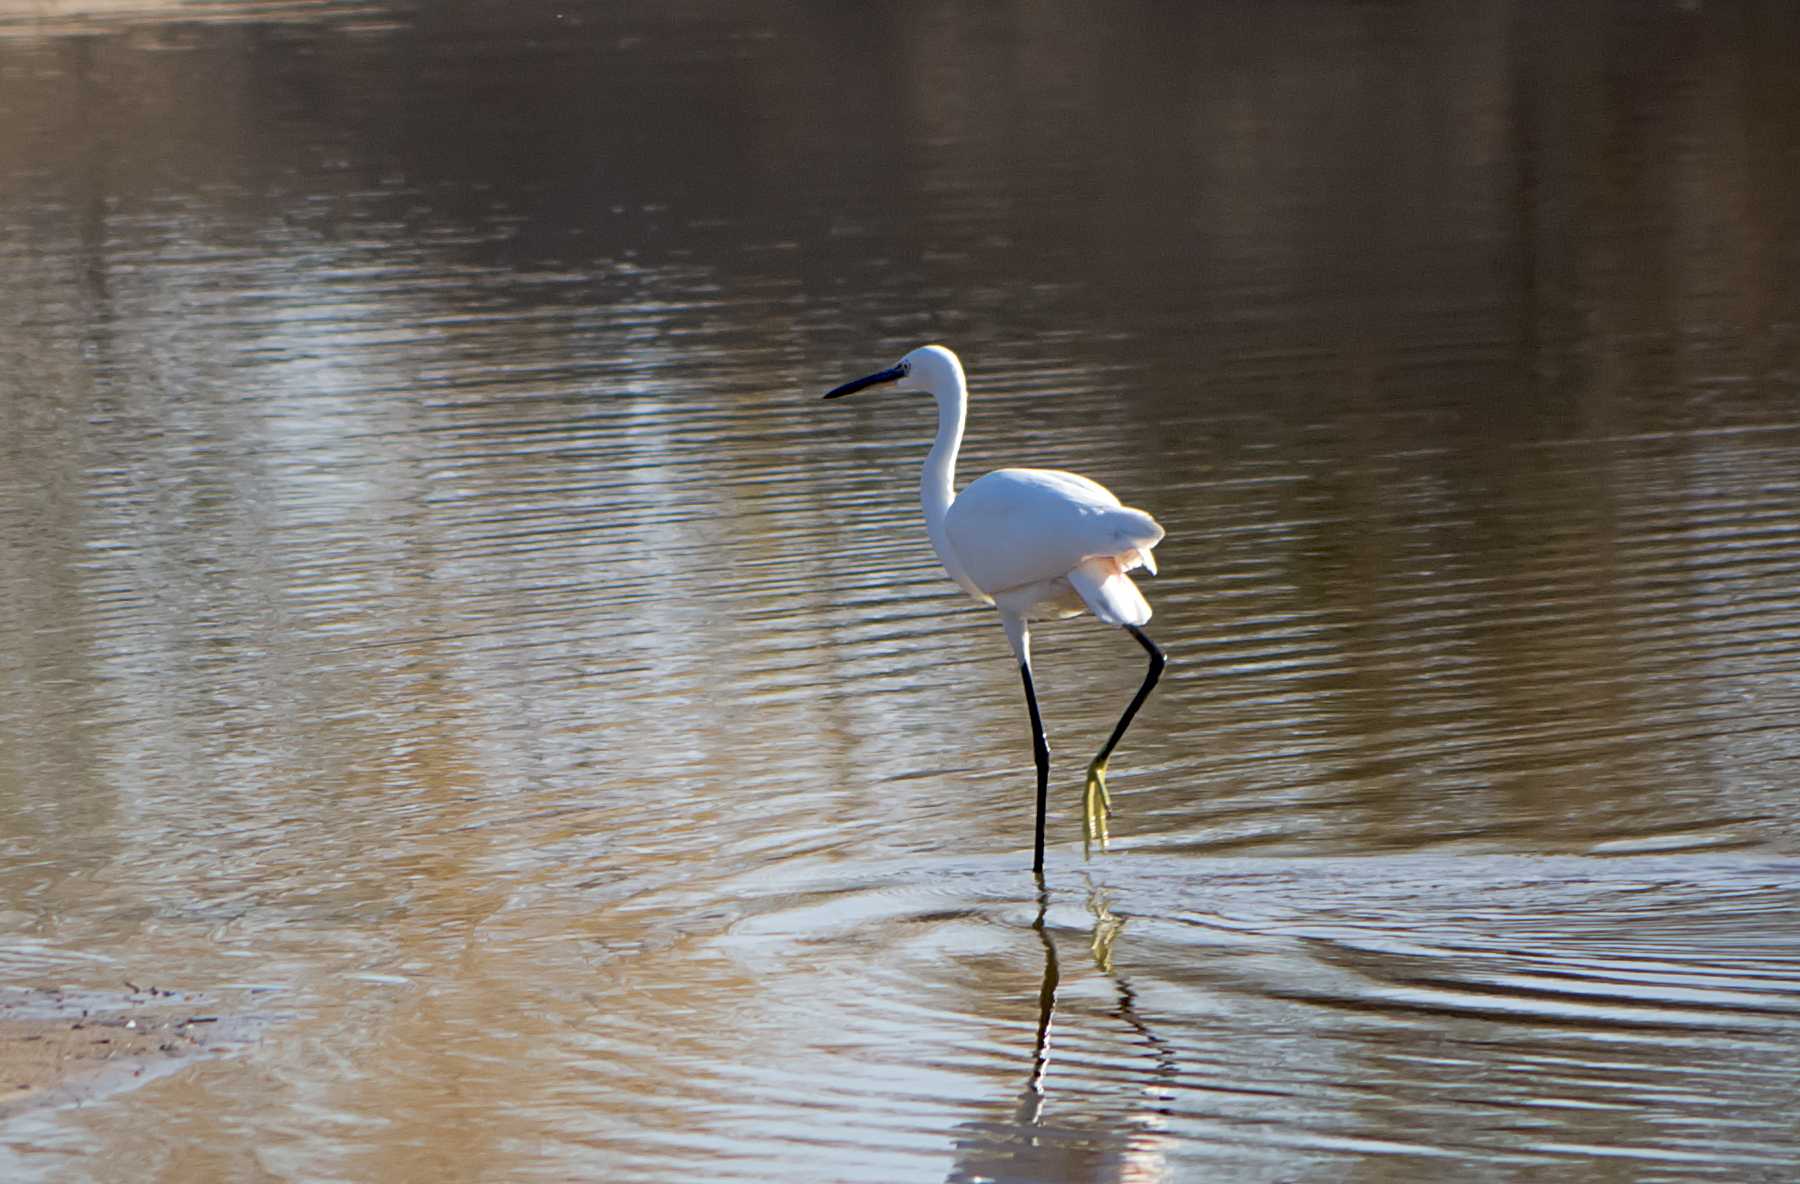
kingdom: Animalia
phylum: Chordata
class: Aves
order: Pelecaniformes
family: Ardeidae
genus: Egretta
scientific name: Egretta garzetta
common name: Little egret
